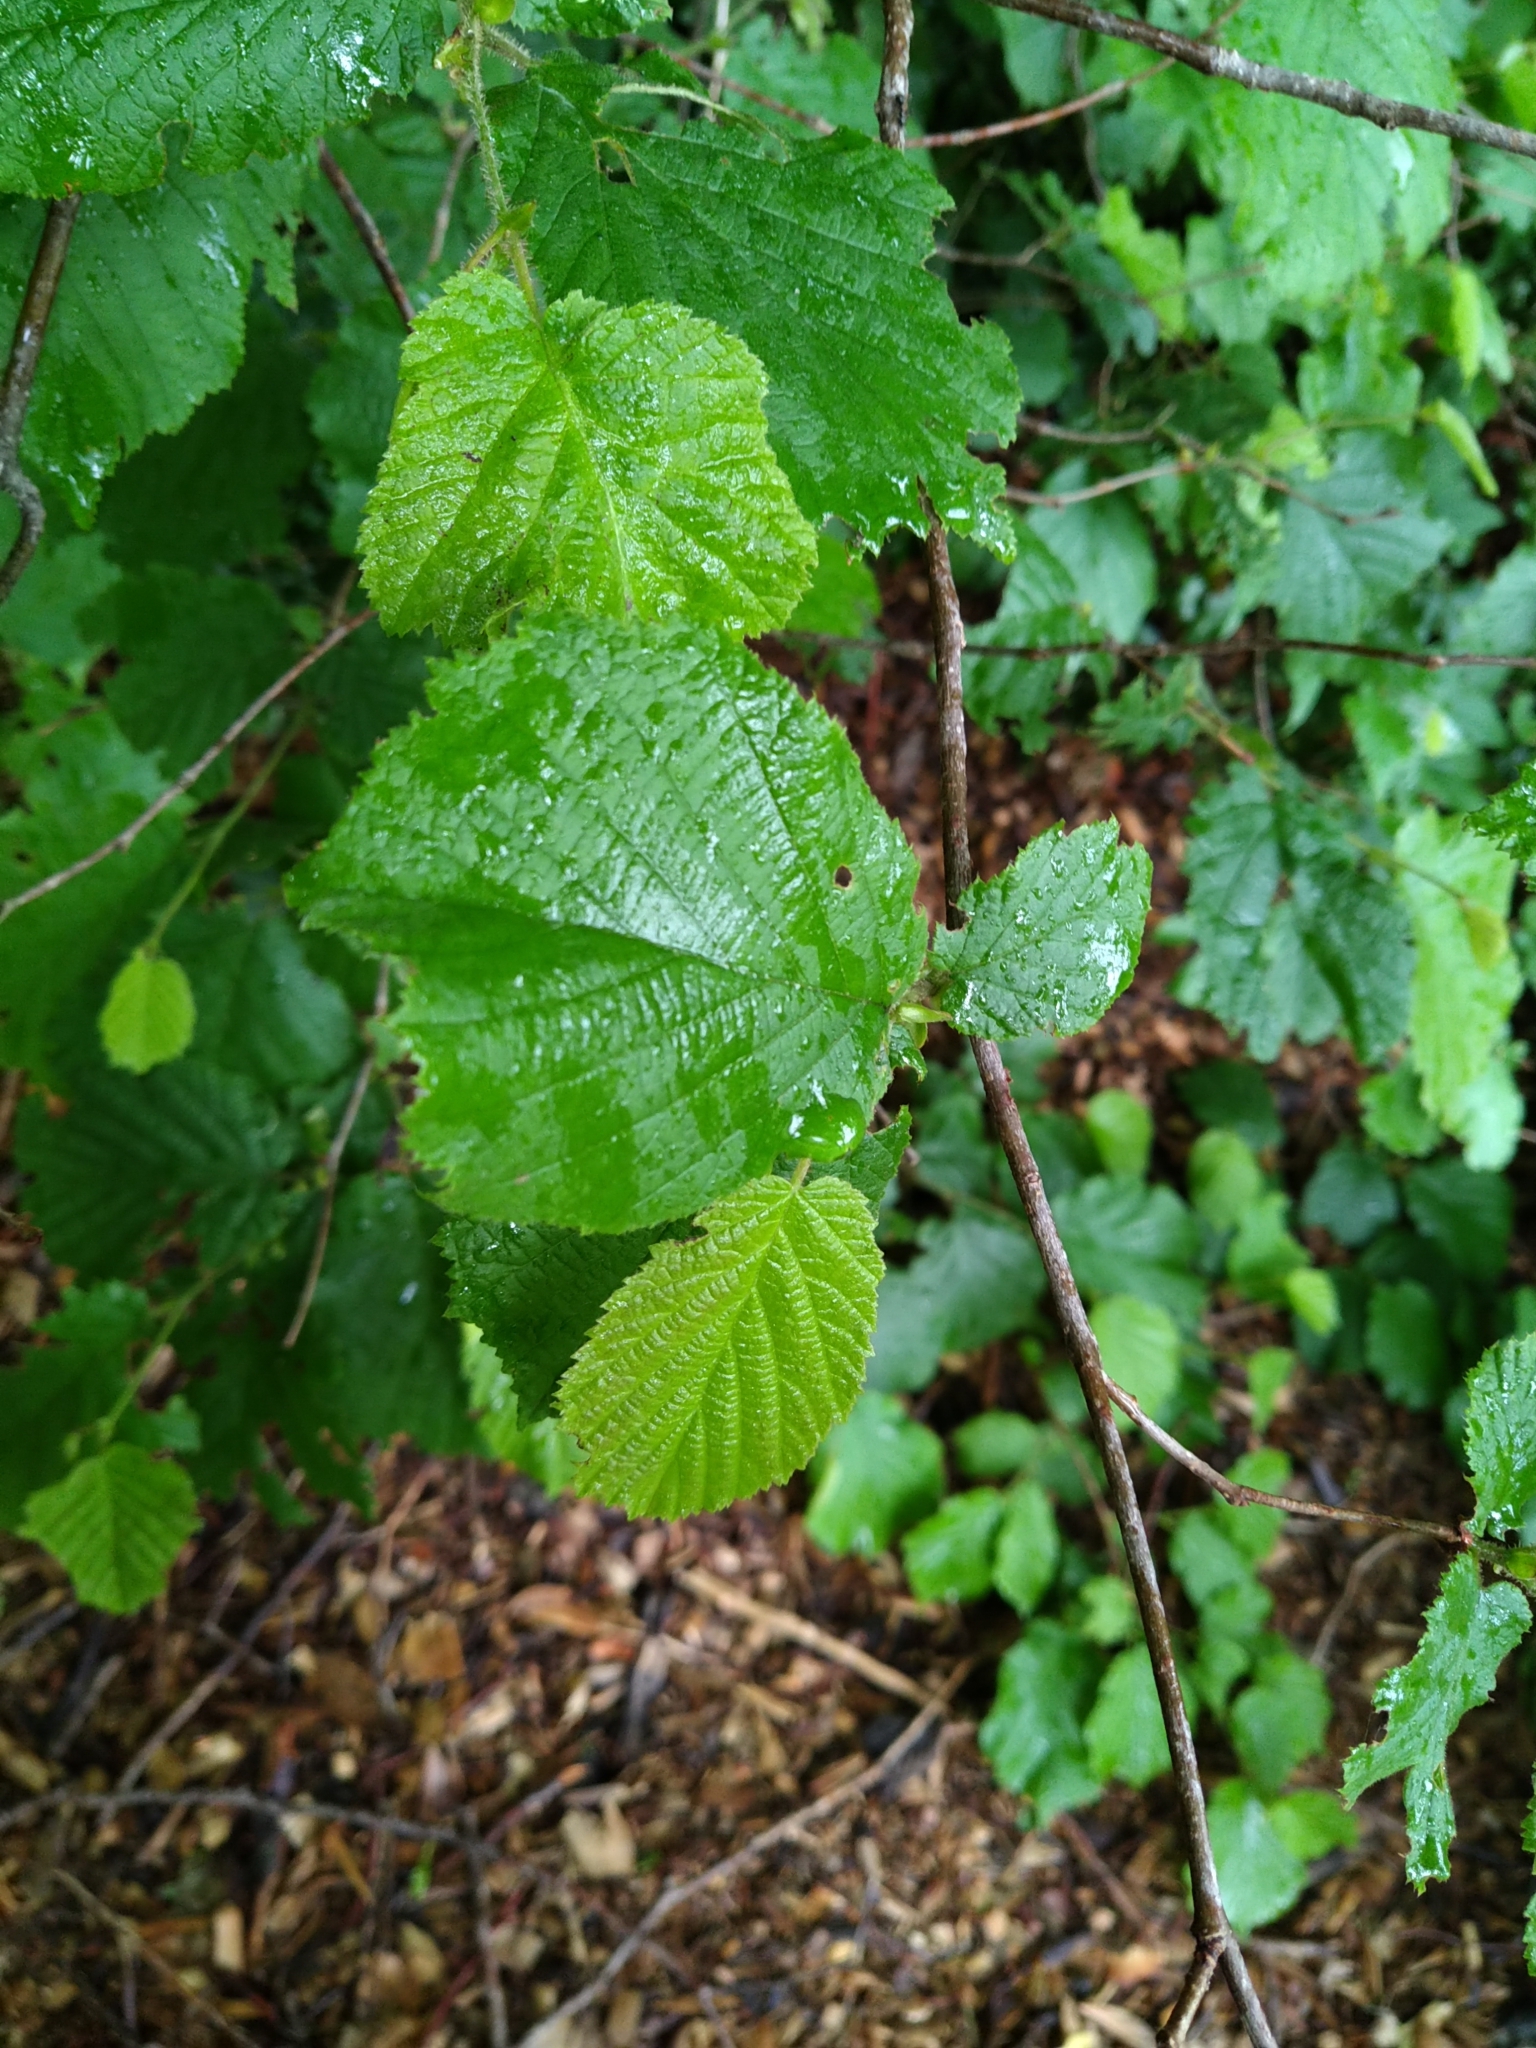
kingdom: Plantae
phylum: Tracheophyta
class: Magnoliopsida
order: Fagales
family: Betulaceae
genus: Corylus
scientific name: Corylus avellana
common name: European hazel
